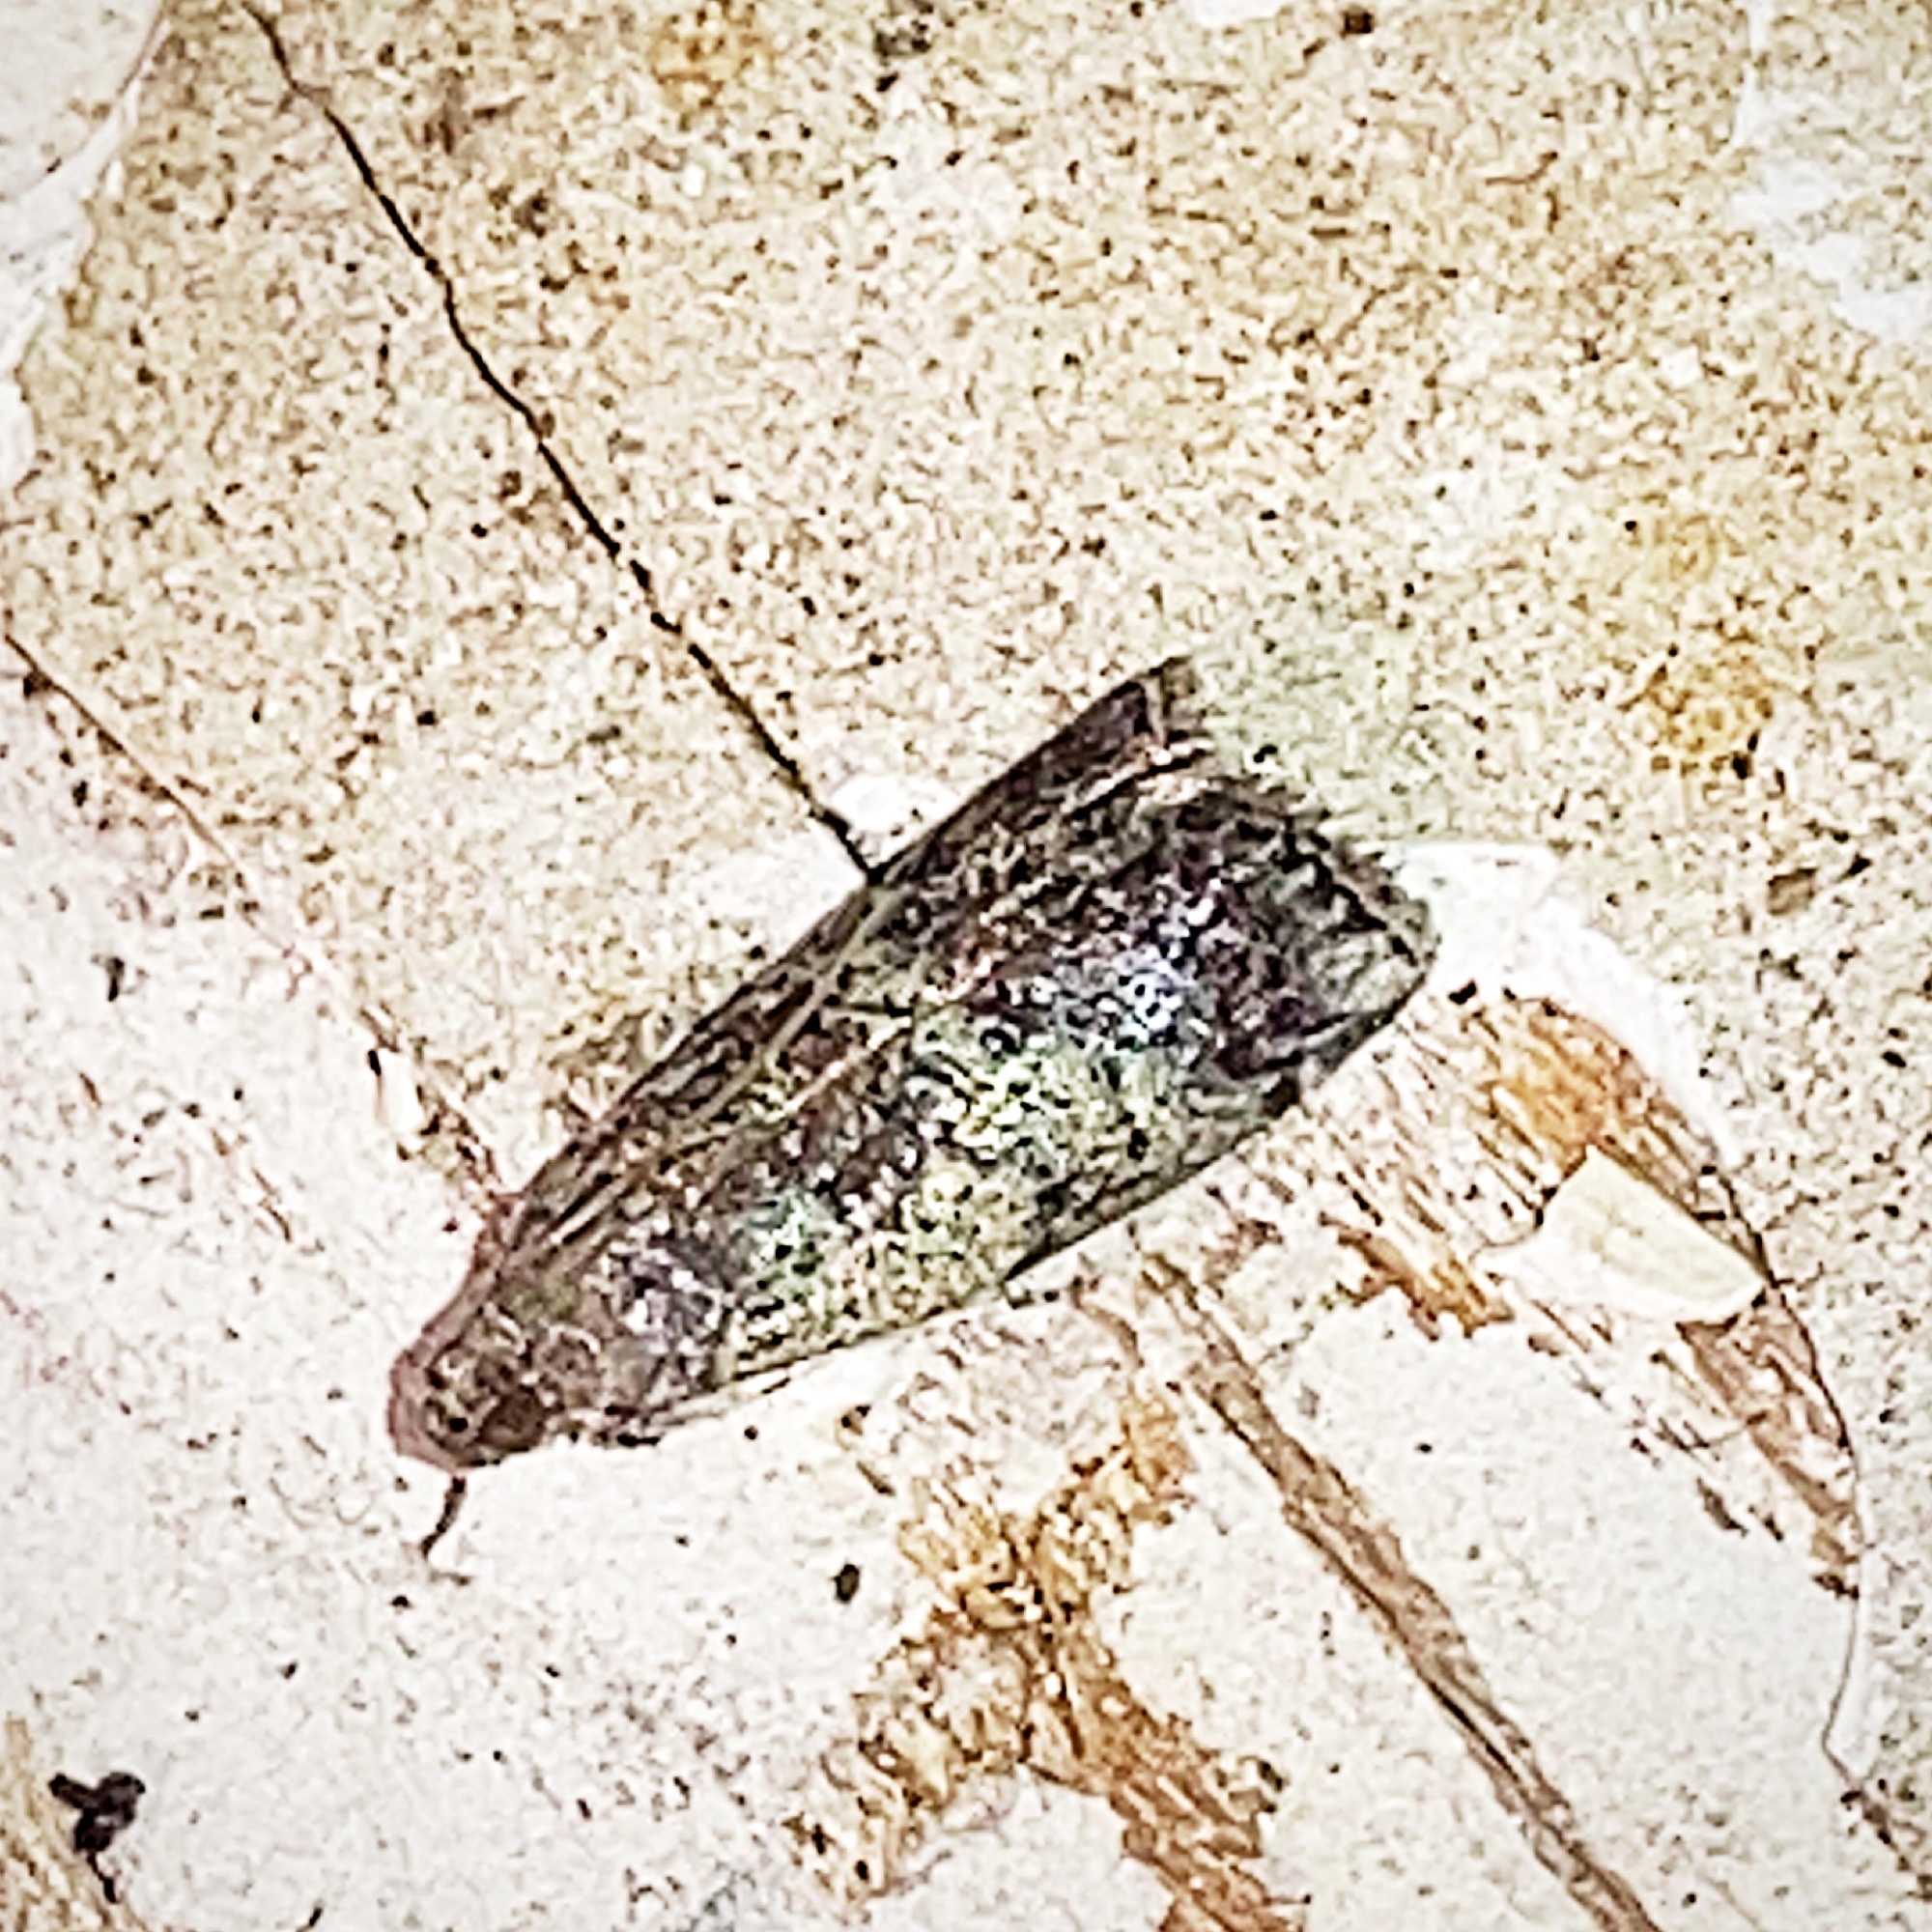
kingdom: Animalia
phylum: Arthropoda
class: Insecta
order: Lepidoptera
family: Pyralidae
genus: Salebriaria
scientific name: Salebriaria squamopalpiella
